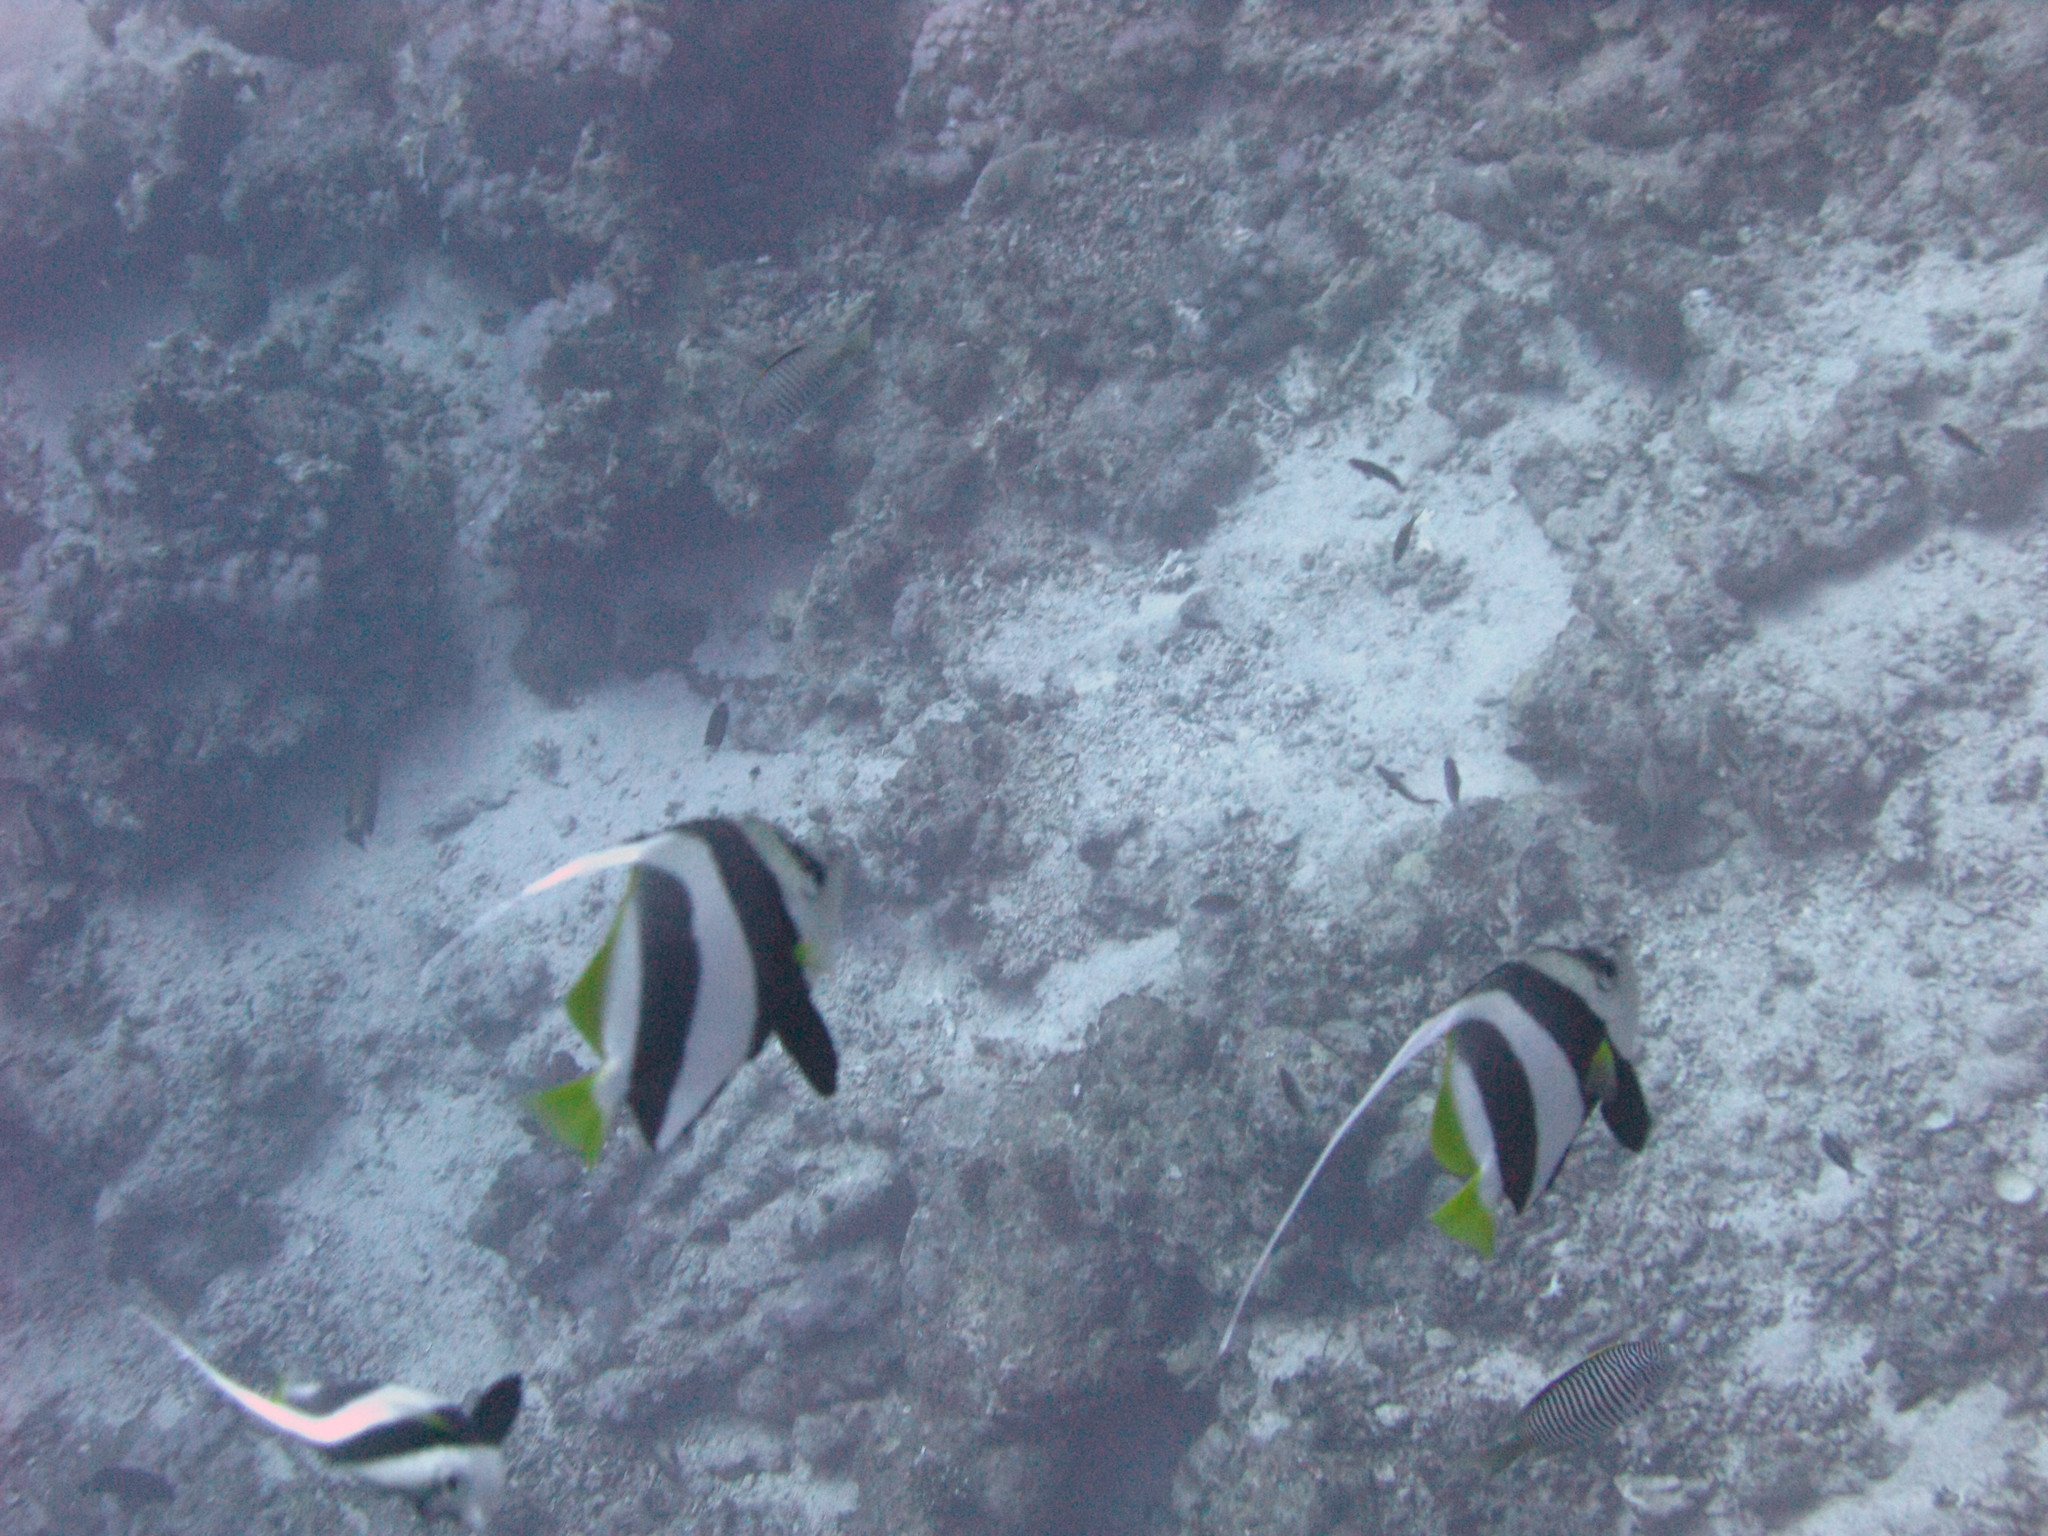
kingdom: Animalia
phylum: Chordata
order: Perciformes
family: Chaetodontidae
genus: Heniochus
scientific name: Heniochus diphreutes
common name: Pennantfish
